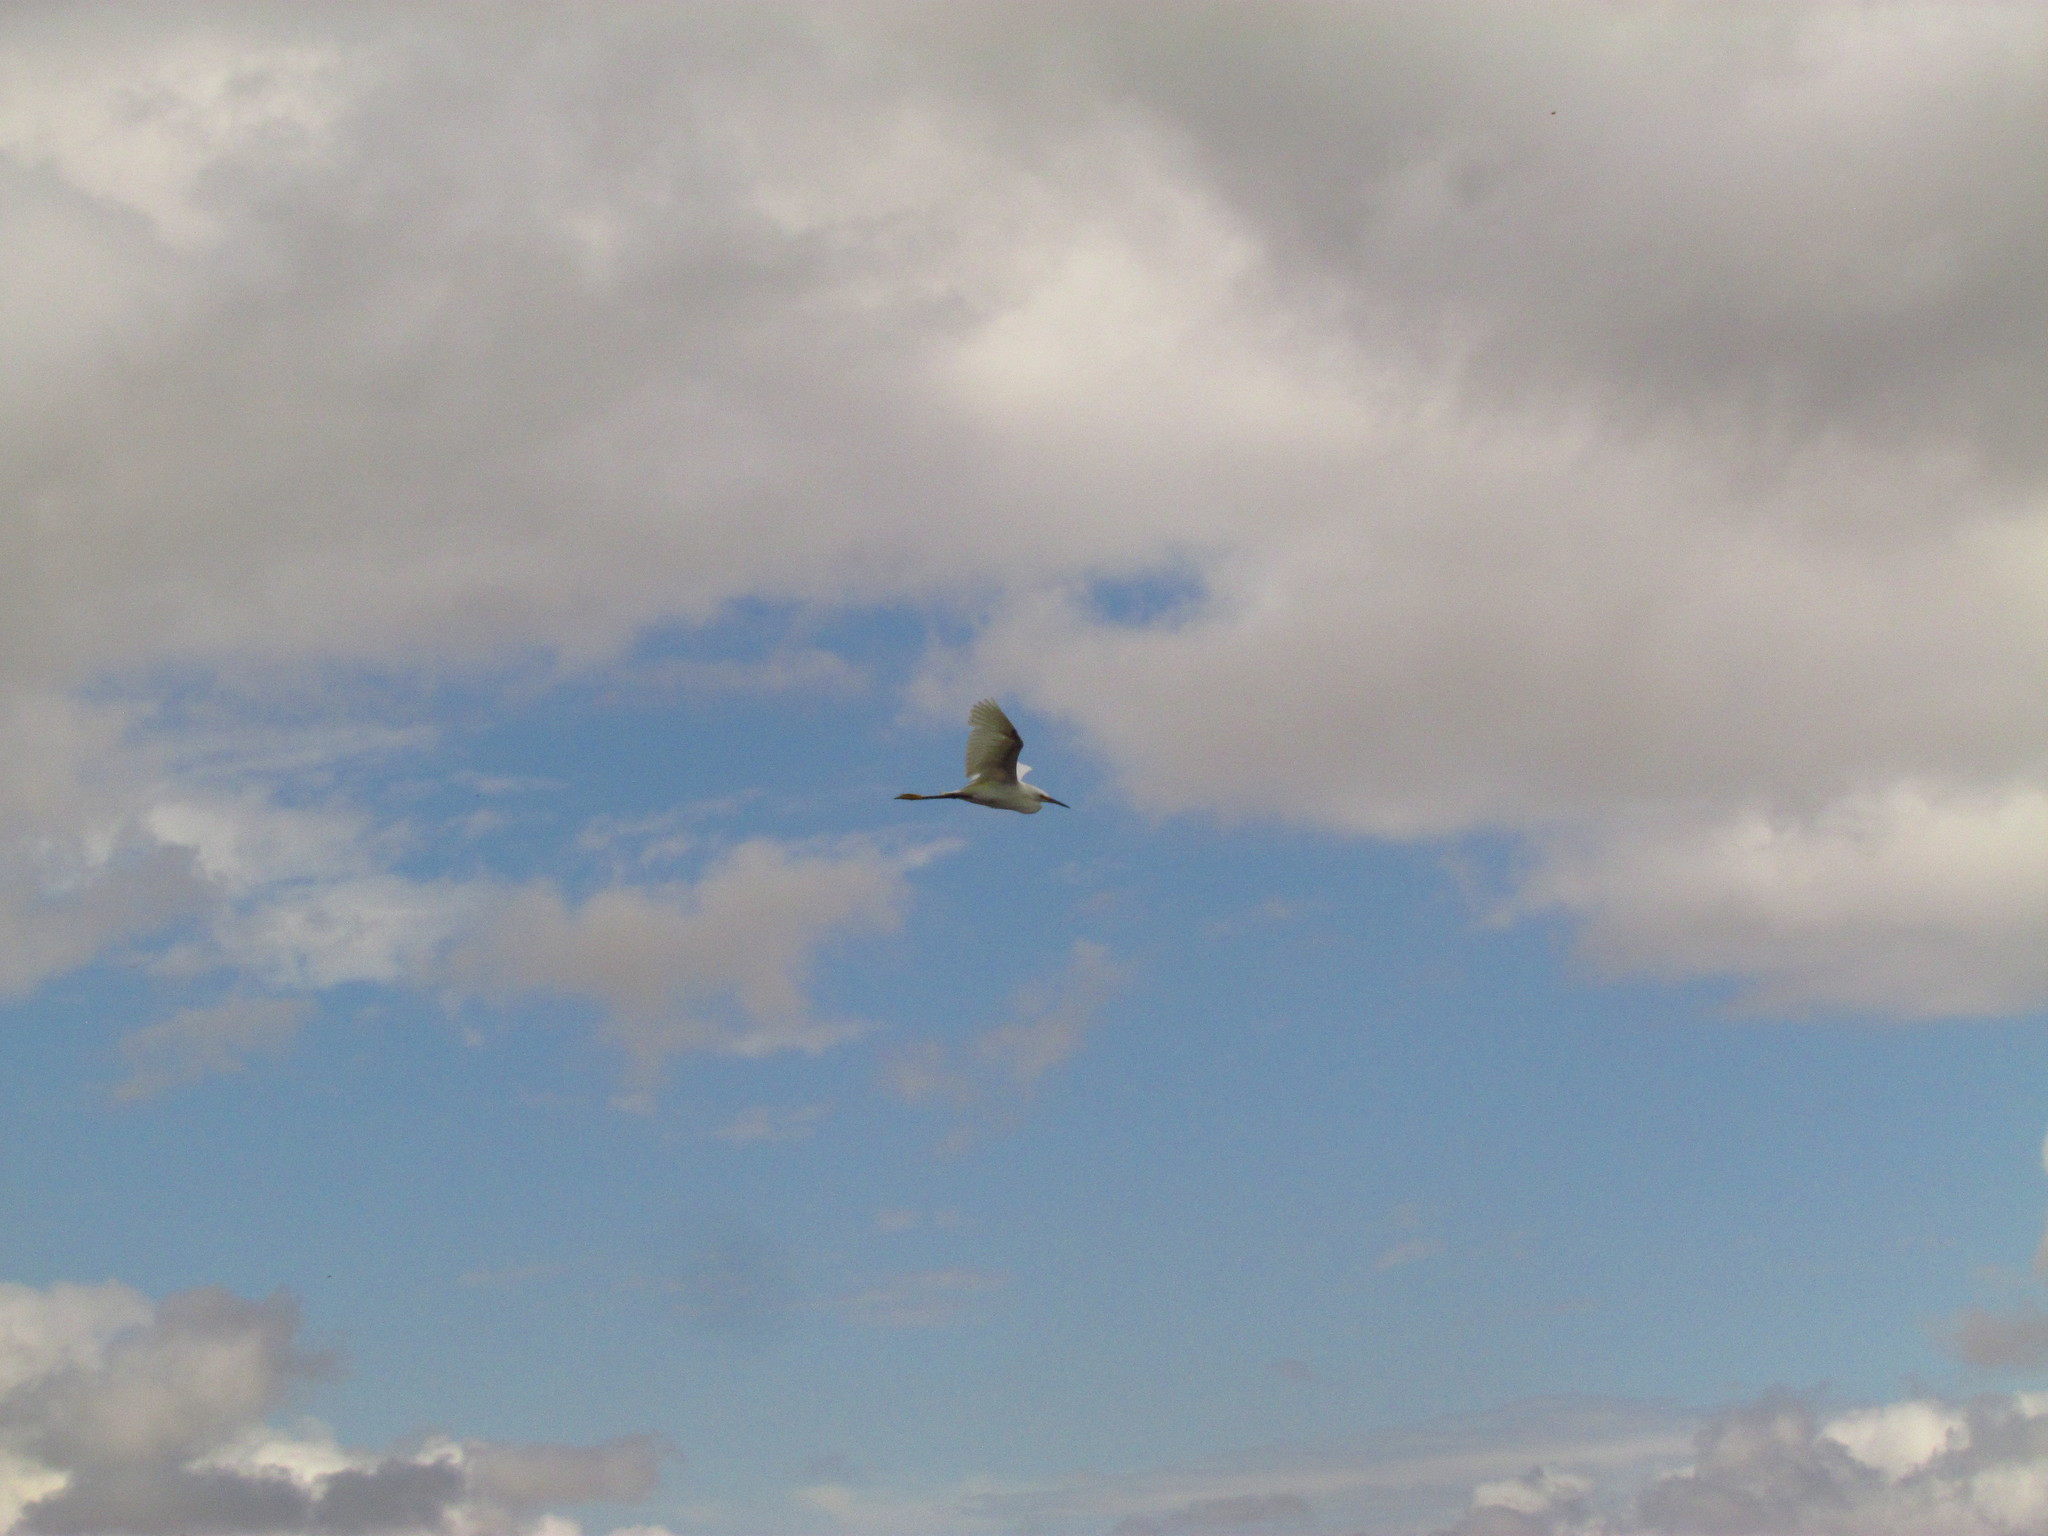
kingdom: Animalia
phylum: Chordata
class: Aves
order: Pelecaniformes
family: Ardeidae
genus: Egretta
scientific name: Egretta thula
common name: Snowy egret
